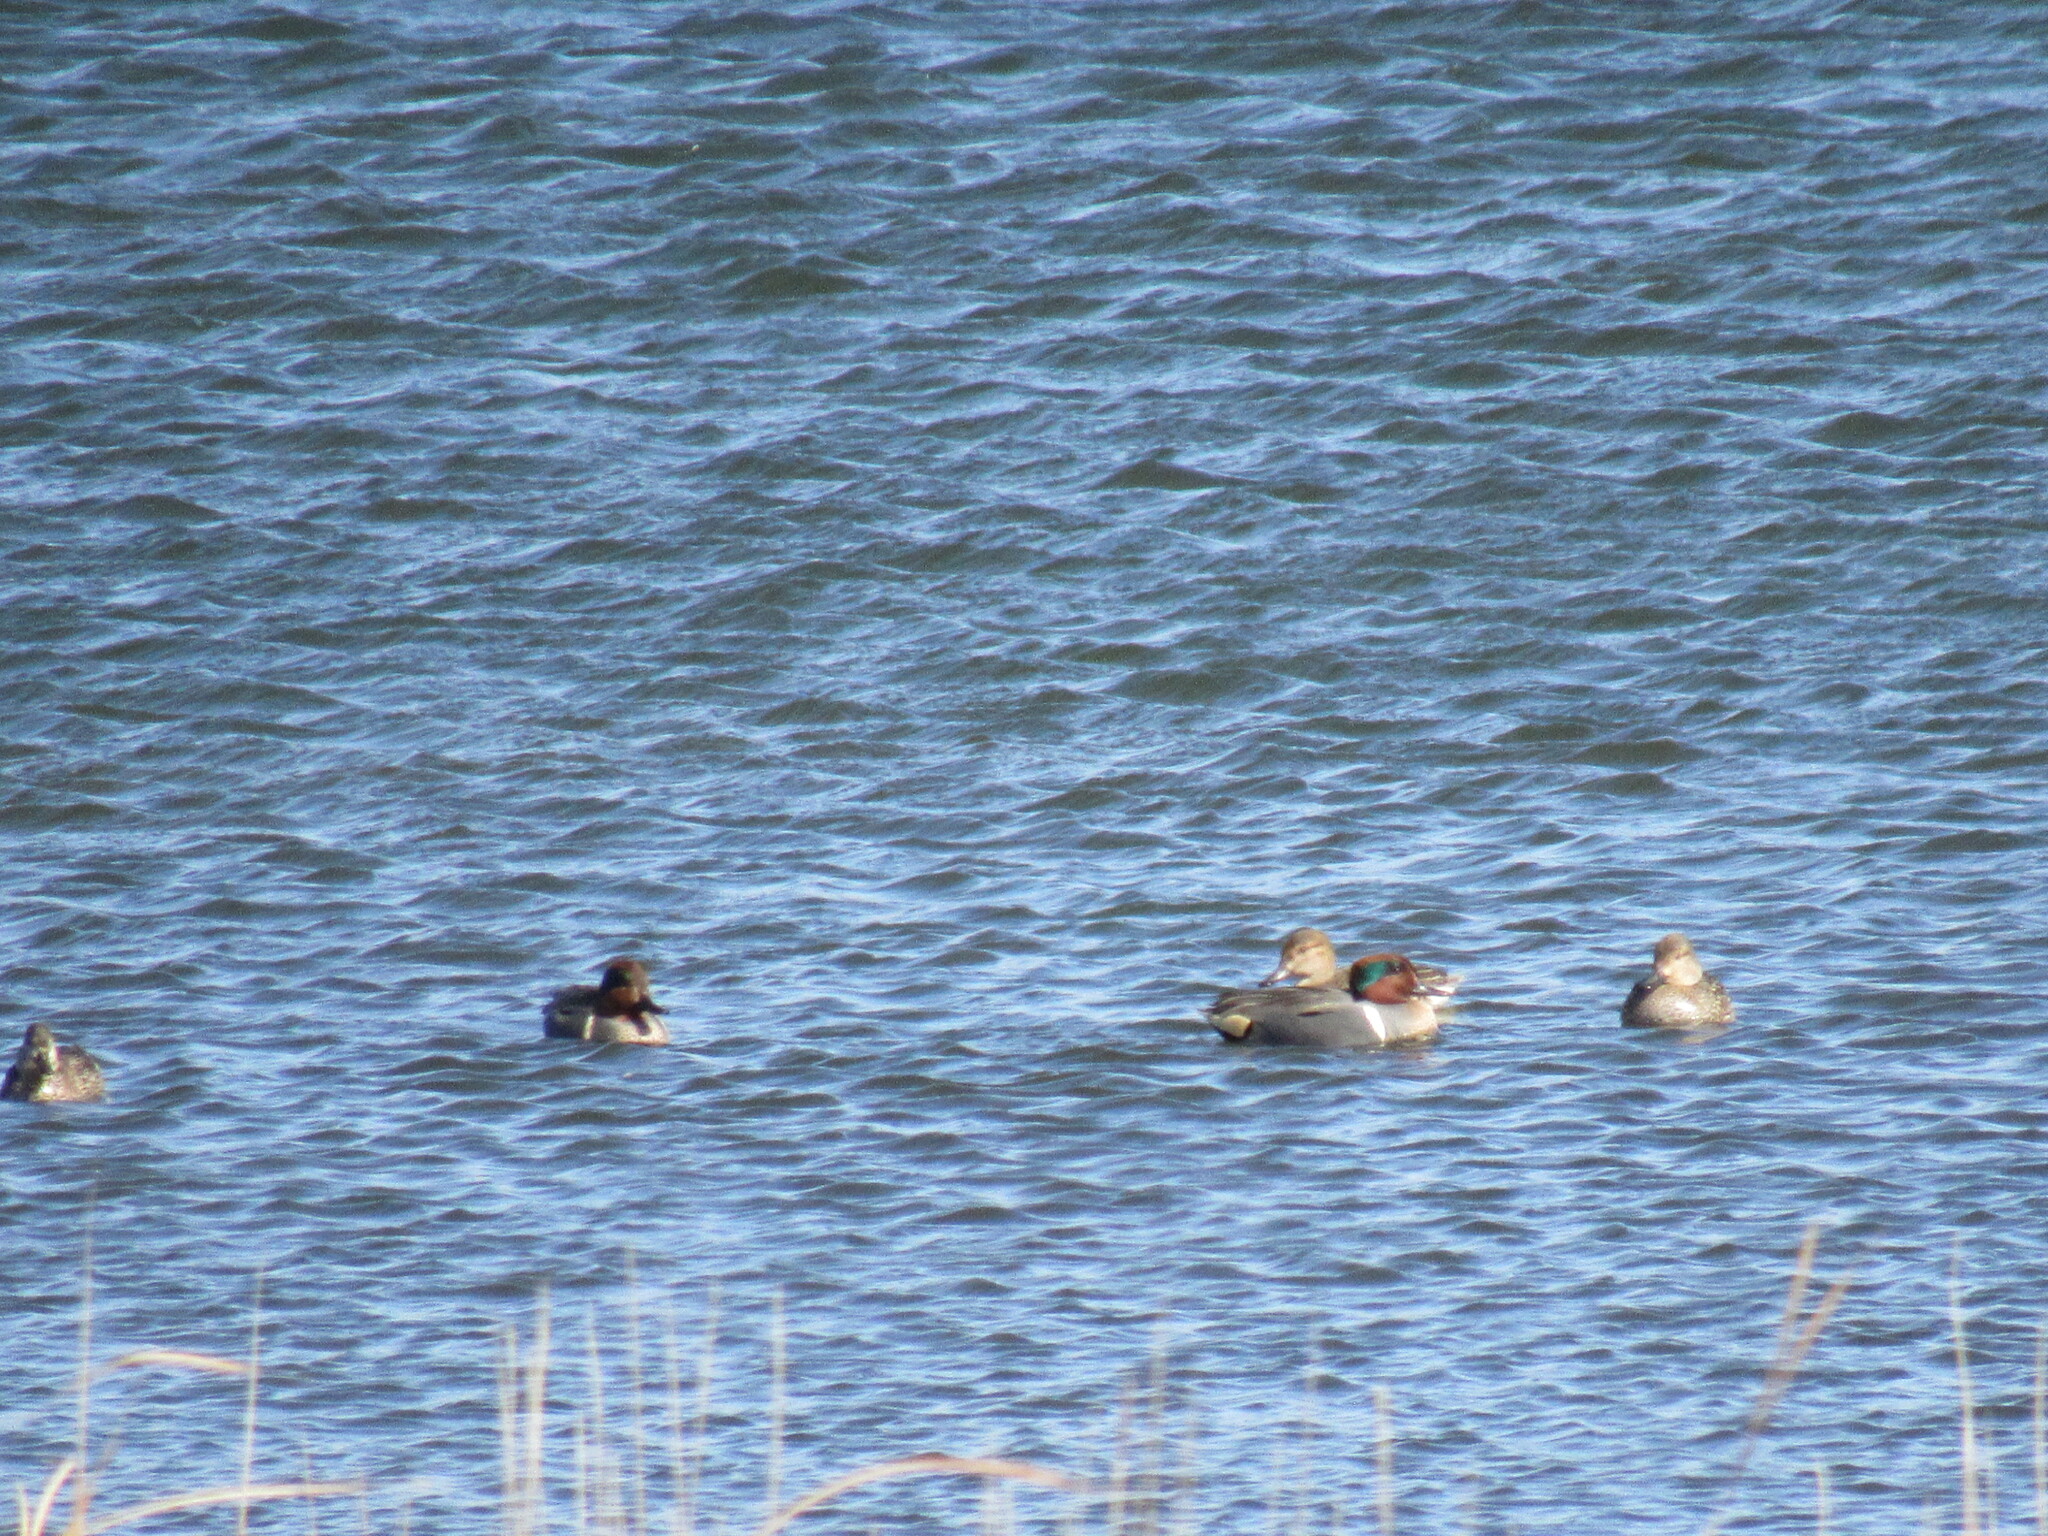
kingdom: Animalia
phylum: Chordata
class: Aves
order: Anseriformes
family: Anatidae
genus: Anas
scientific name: Anas crecca
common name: Eurasian teal
